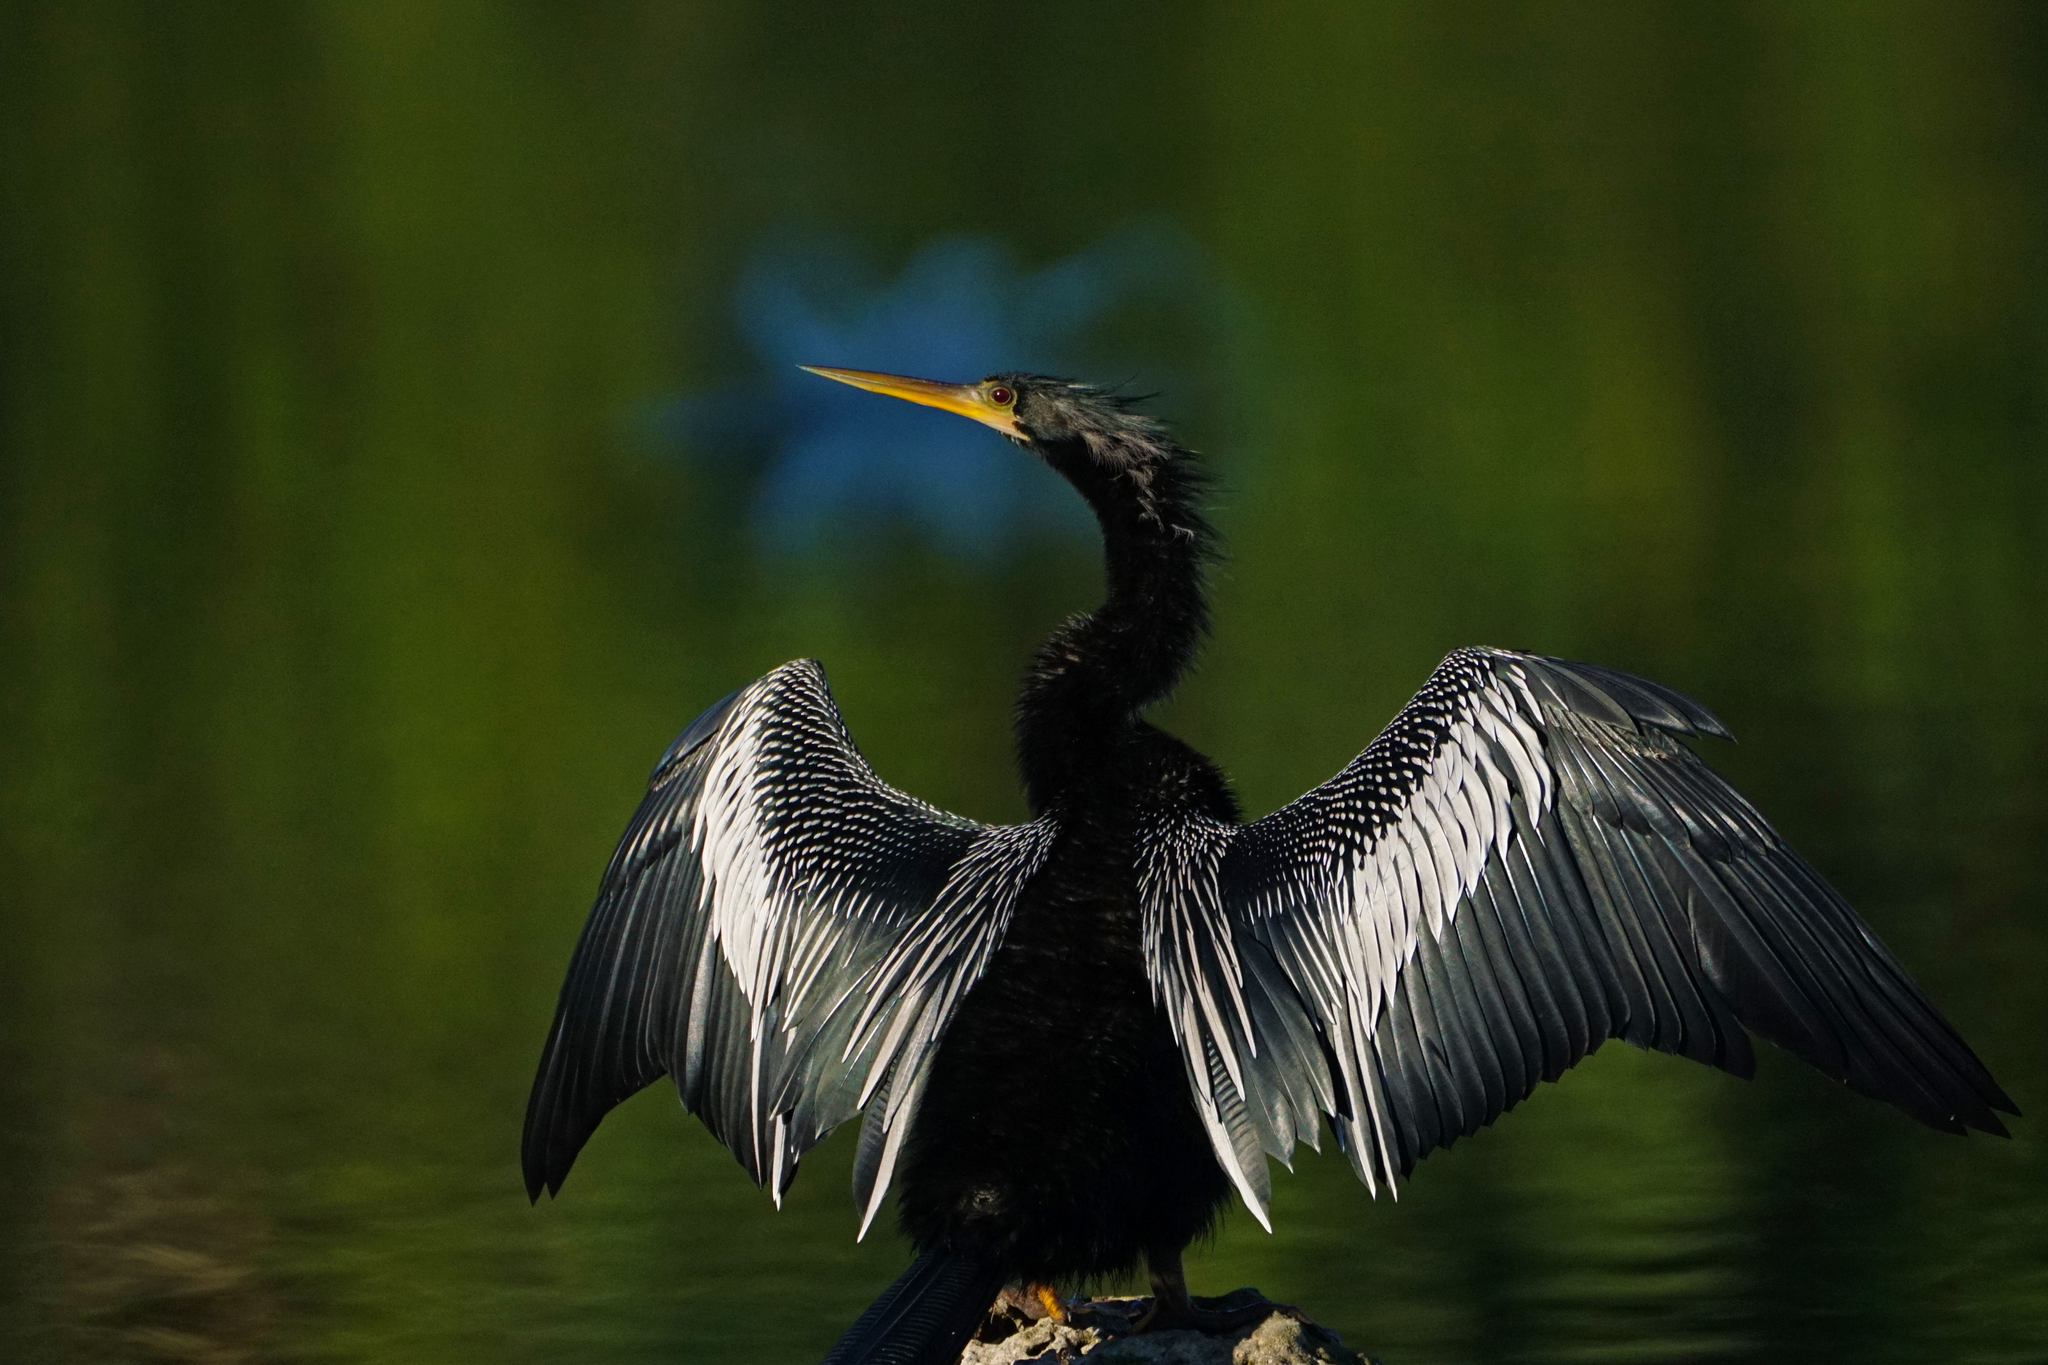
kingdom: Animalia
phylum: Chordata
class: Aves
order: Suliformes
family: Anhingidae
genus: Anhinga
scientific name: Anhinga anhinga
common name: Anhinga
